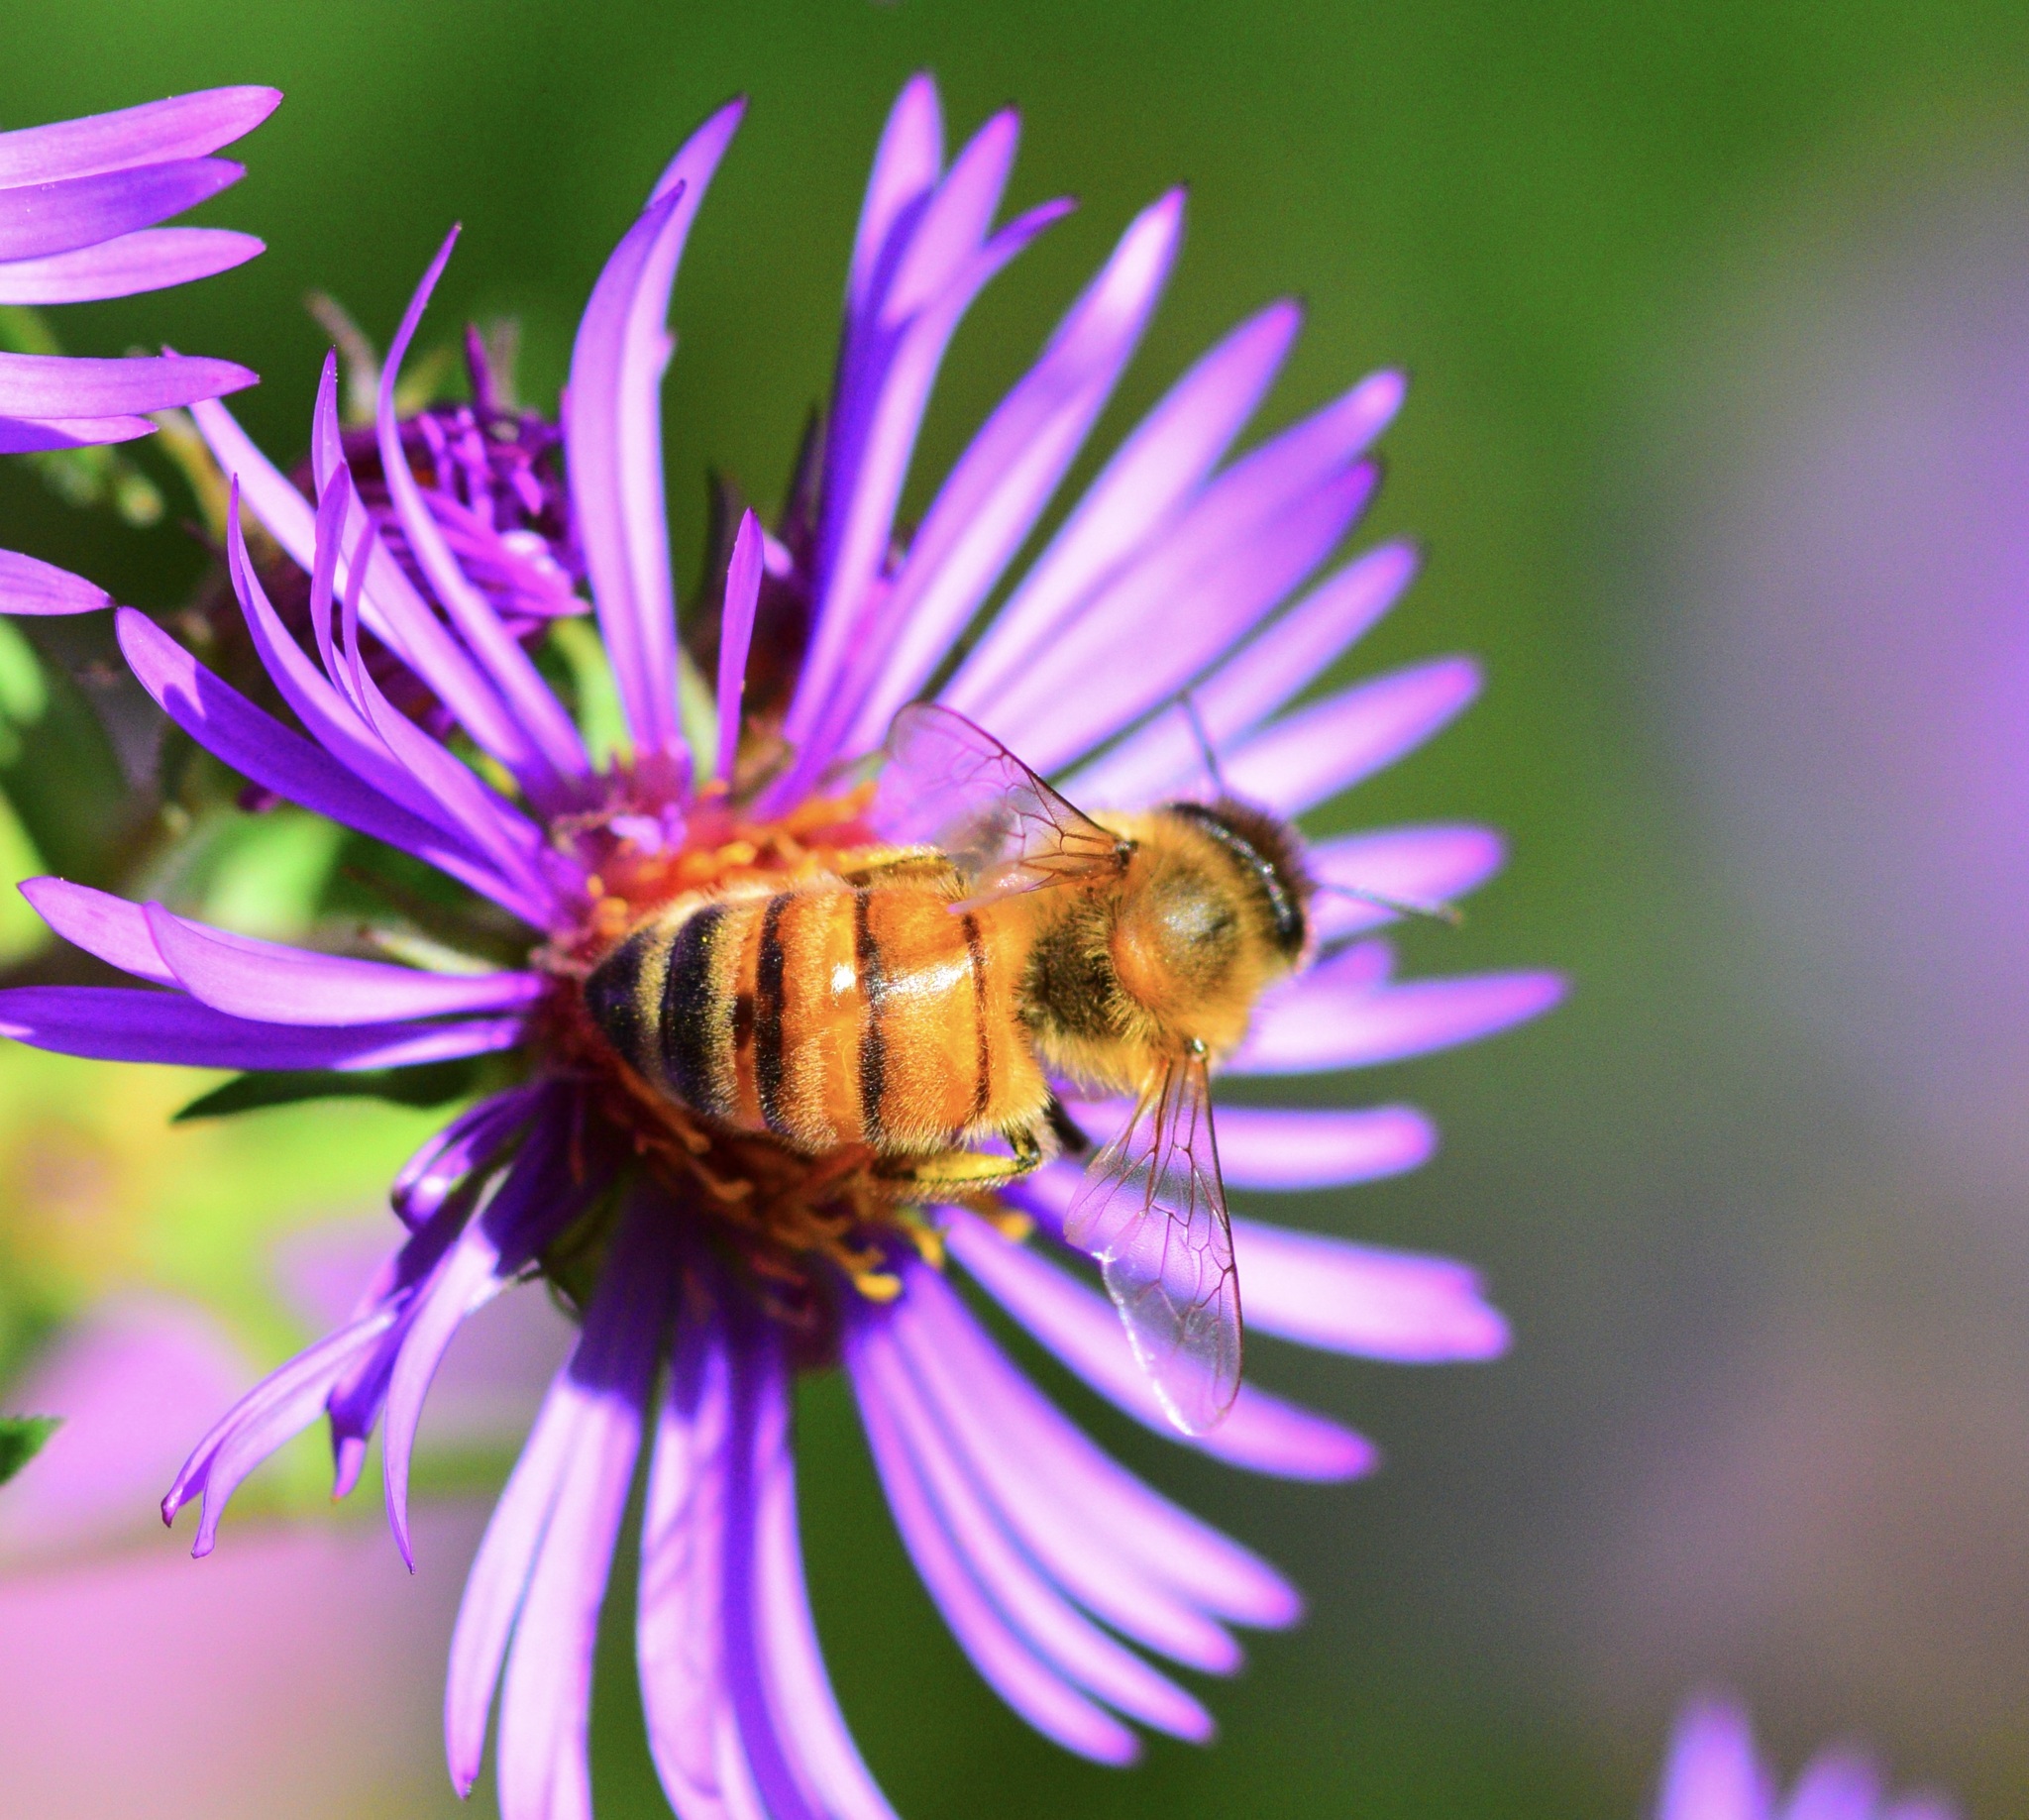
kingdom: Animalia
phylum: Arthropoda
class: Insecta
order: Hymenoptera
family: Apidae
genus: Apis
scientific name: Apis mellifera
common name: Honey bee
